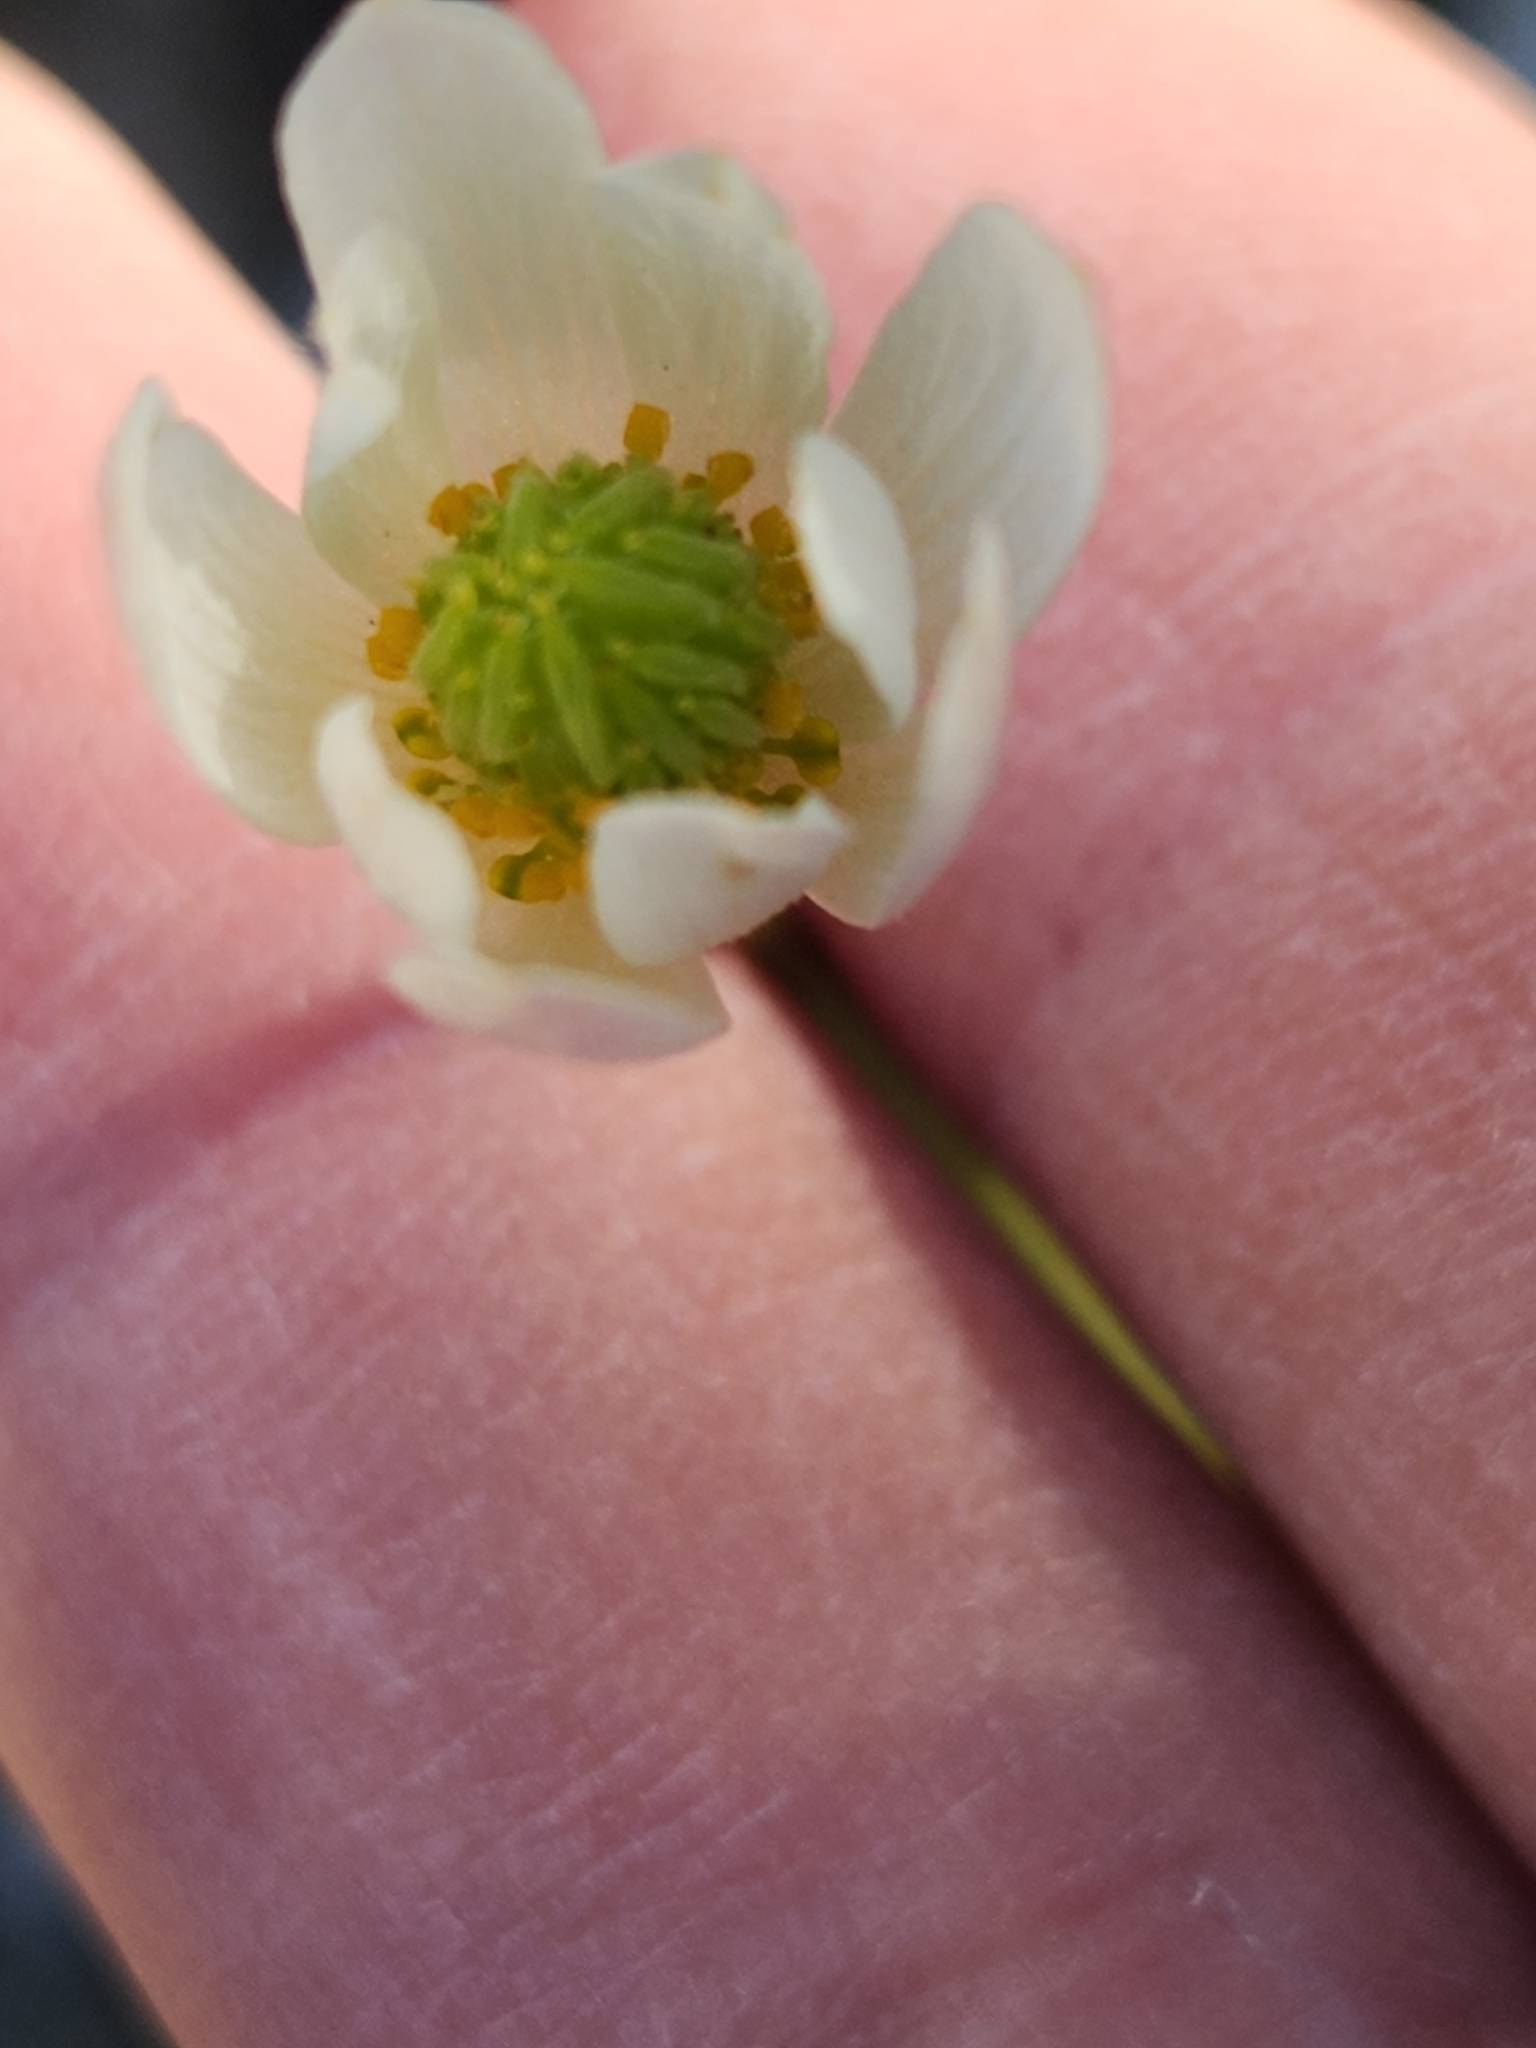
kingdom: Plantae
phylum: Tracheophyta
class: Magnoliopsida
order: Ranunculales
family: Ranunculaceae
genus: Anemone
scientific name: Anemone edwardsiana
